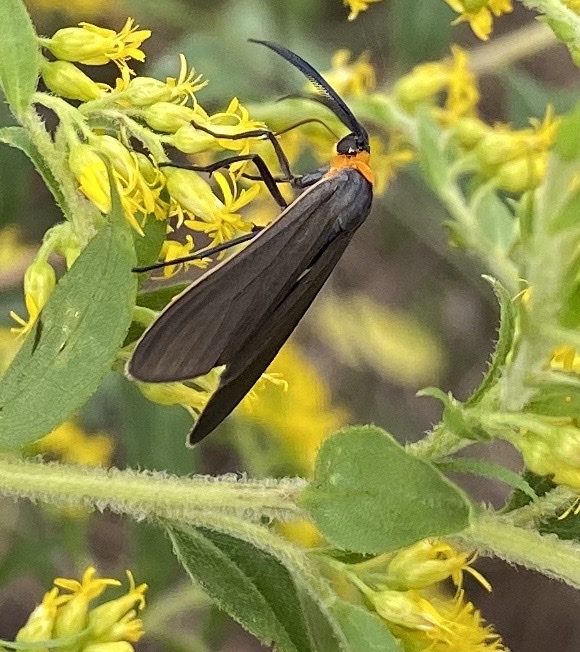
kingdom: Animalia
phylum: Arthropoda
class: Insecta
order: Lepidoptera
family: Erebidae
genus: Cisseps
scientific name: Cisseps fulvicollis
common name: Yellow-collared scape moth
